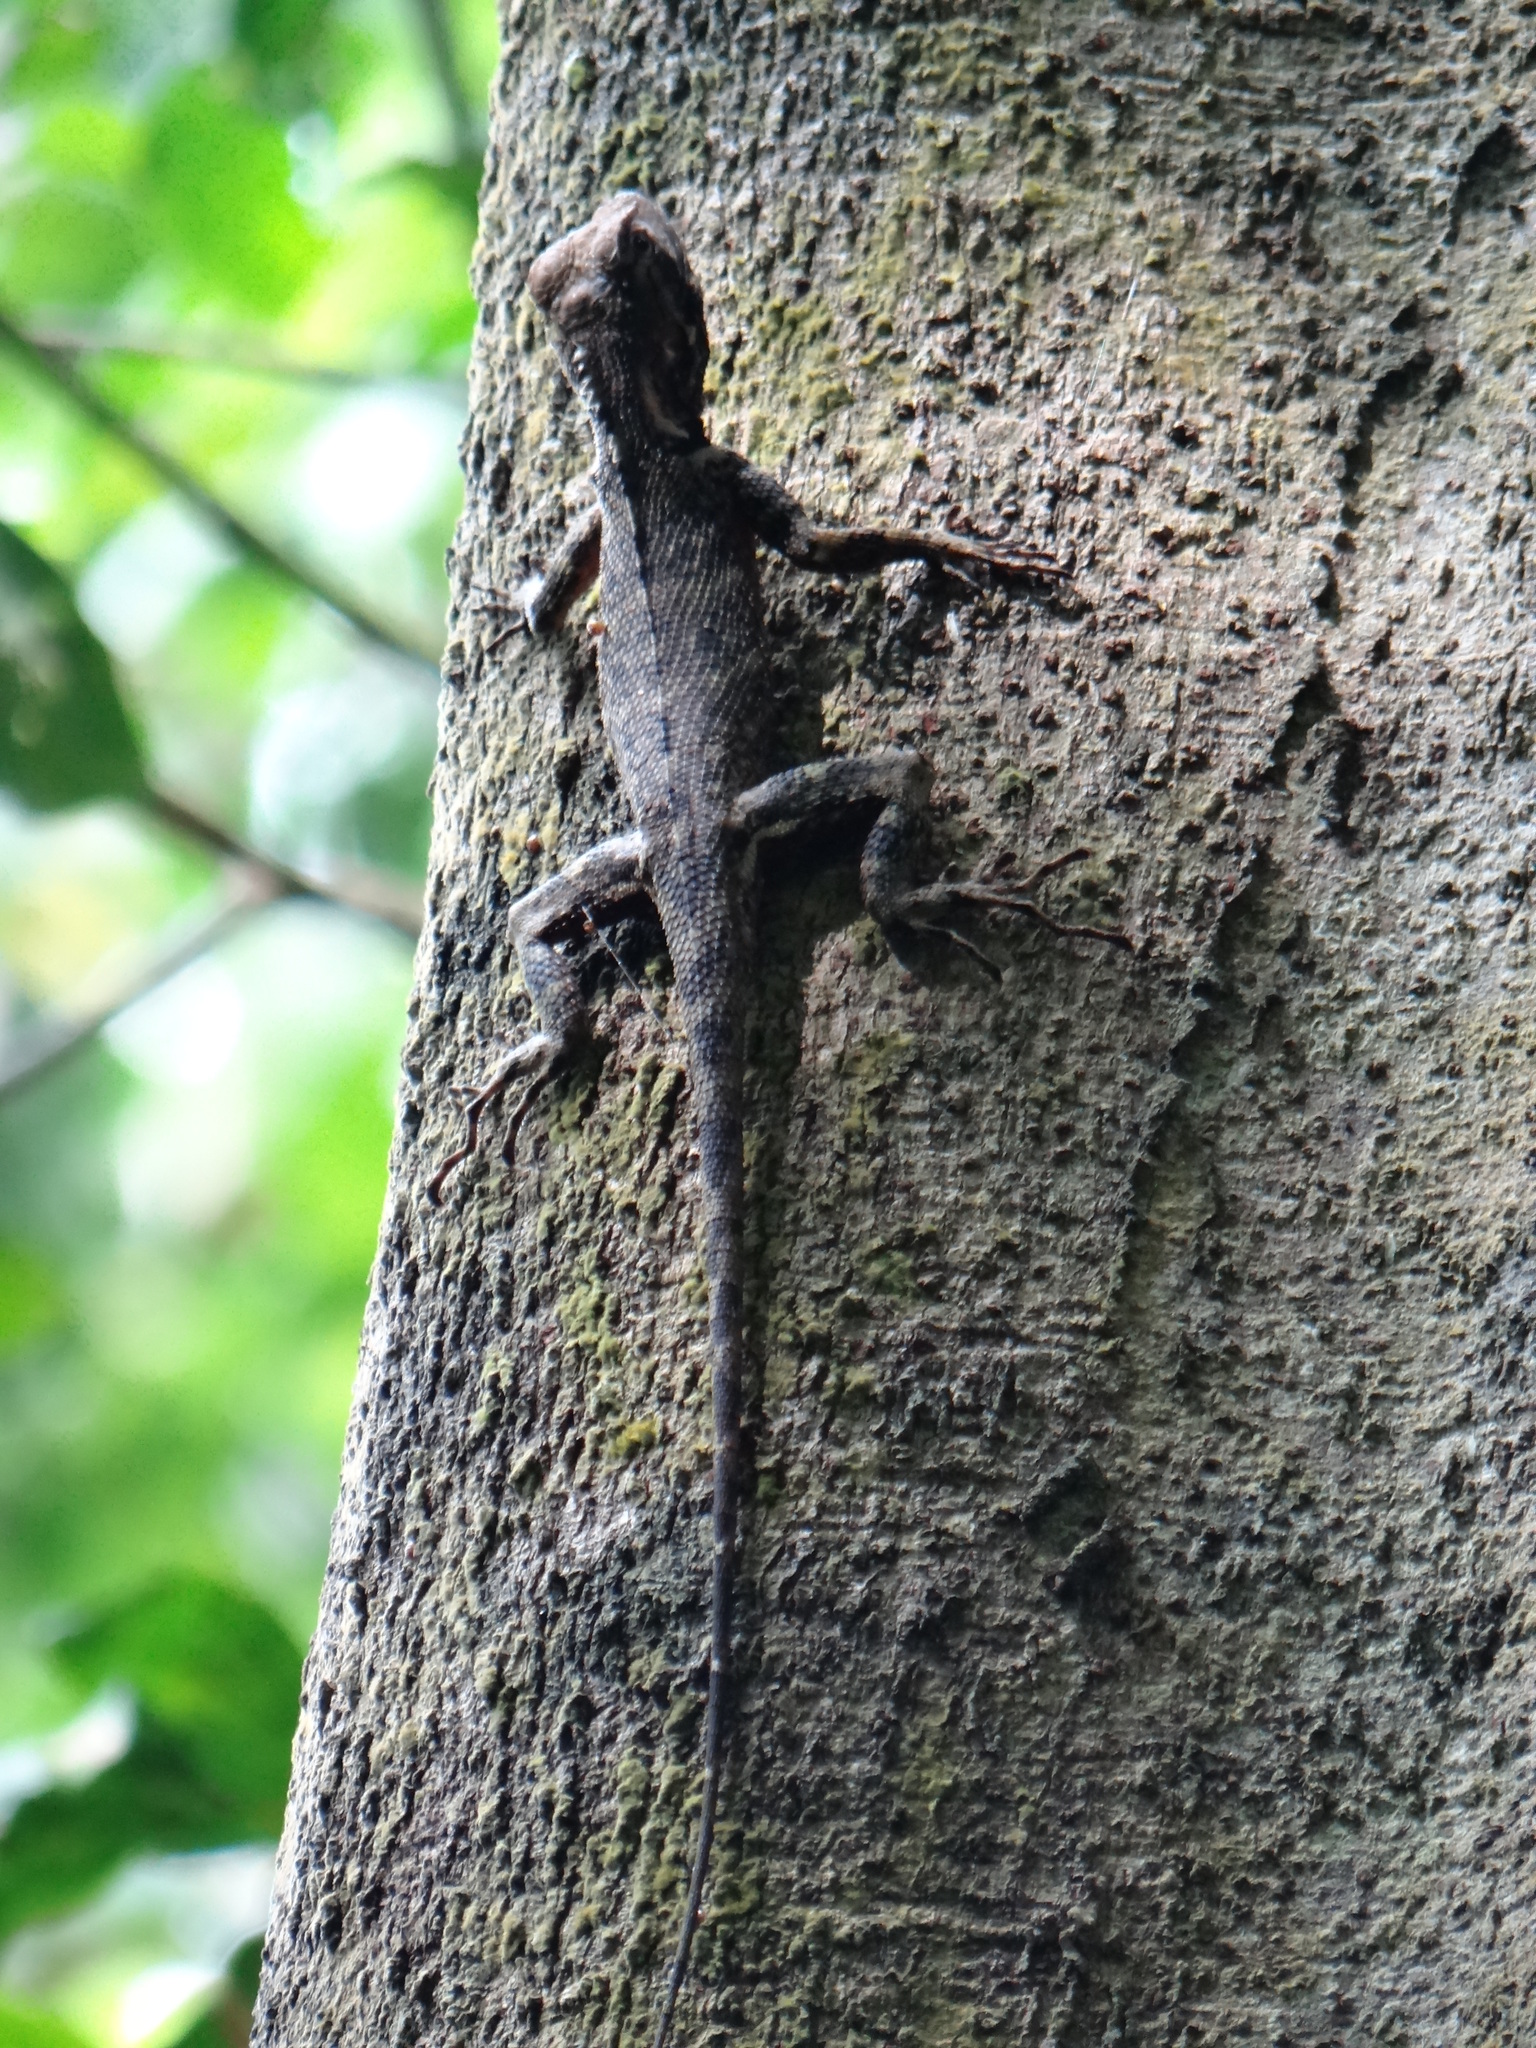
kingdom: Animalia
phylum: Chordata
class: Squamata
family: Tropiduridae
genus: Plica
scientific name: Plica umbra
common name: Harlequin racerunner
